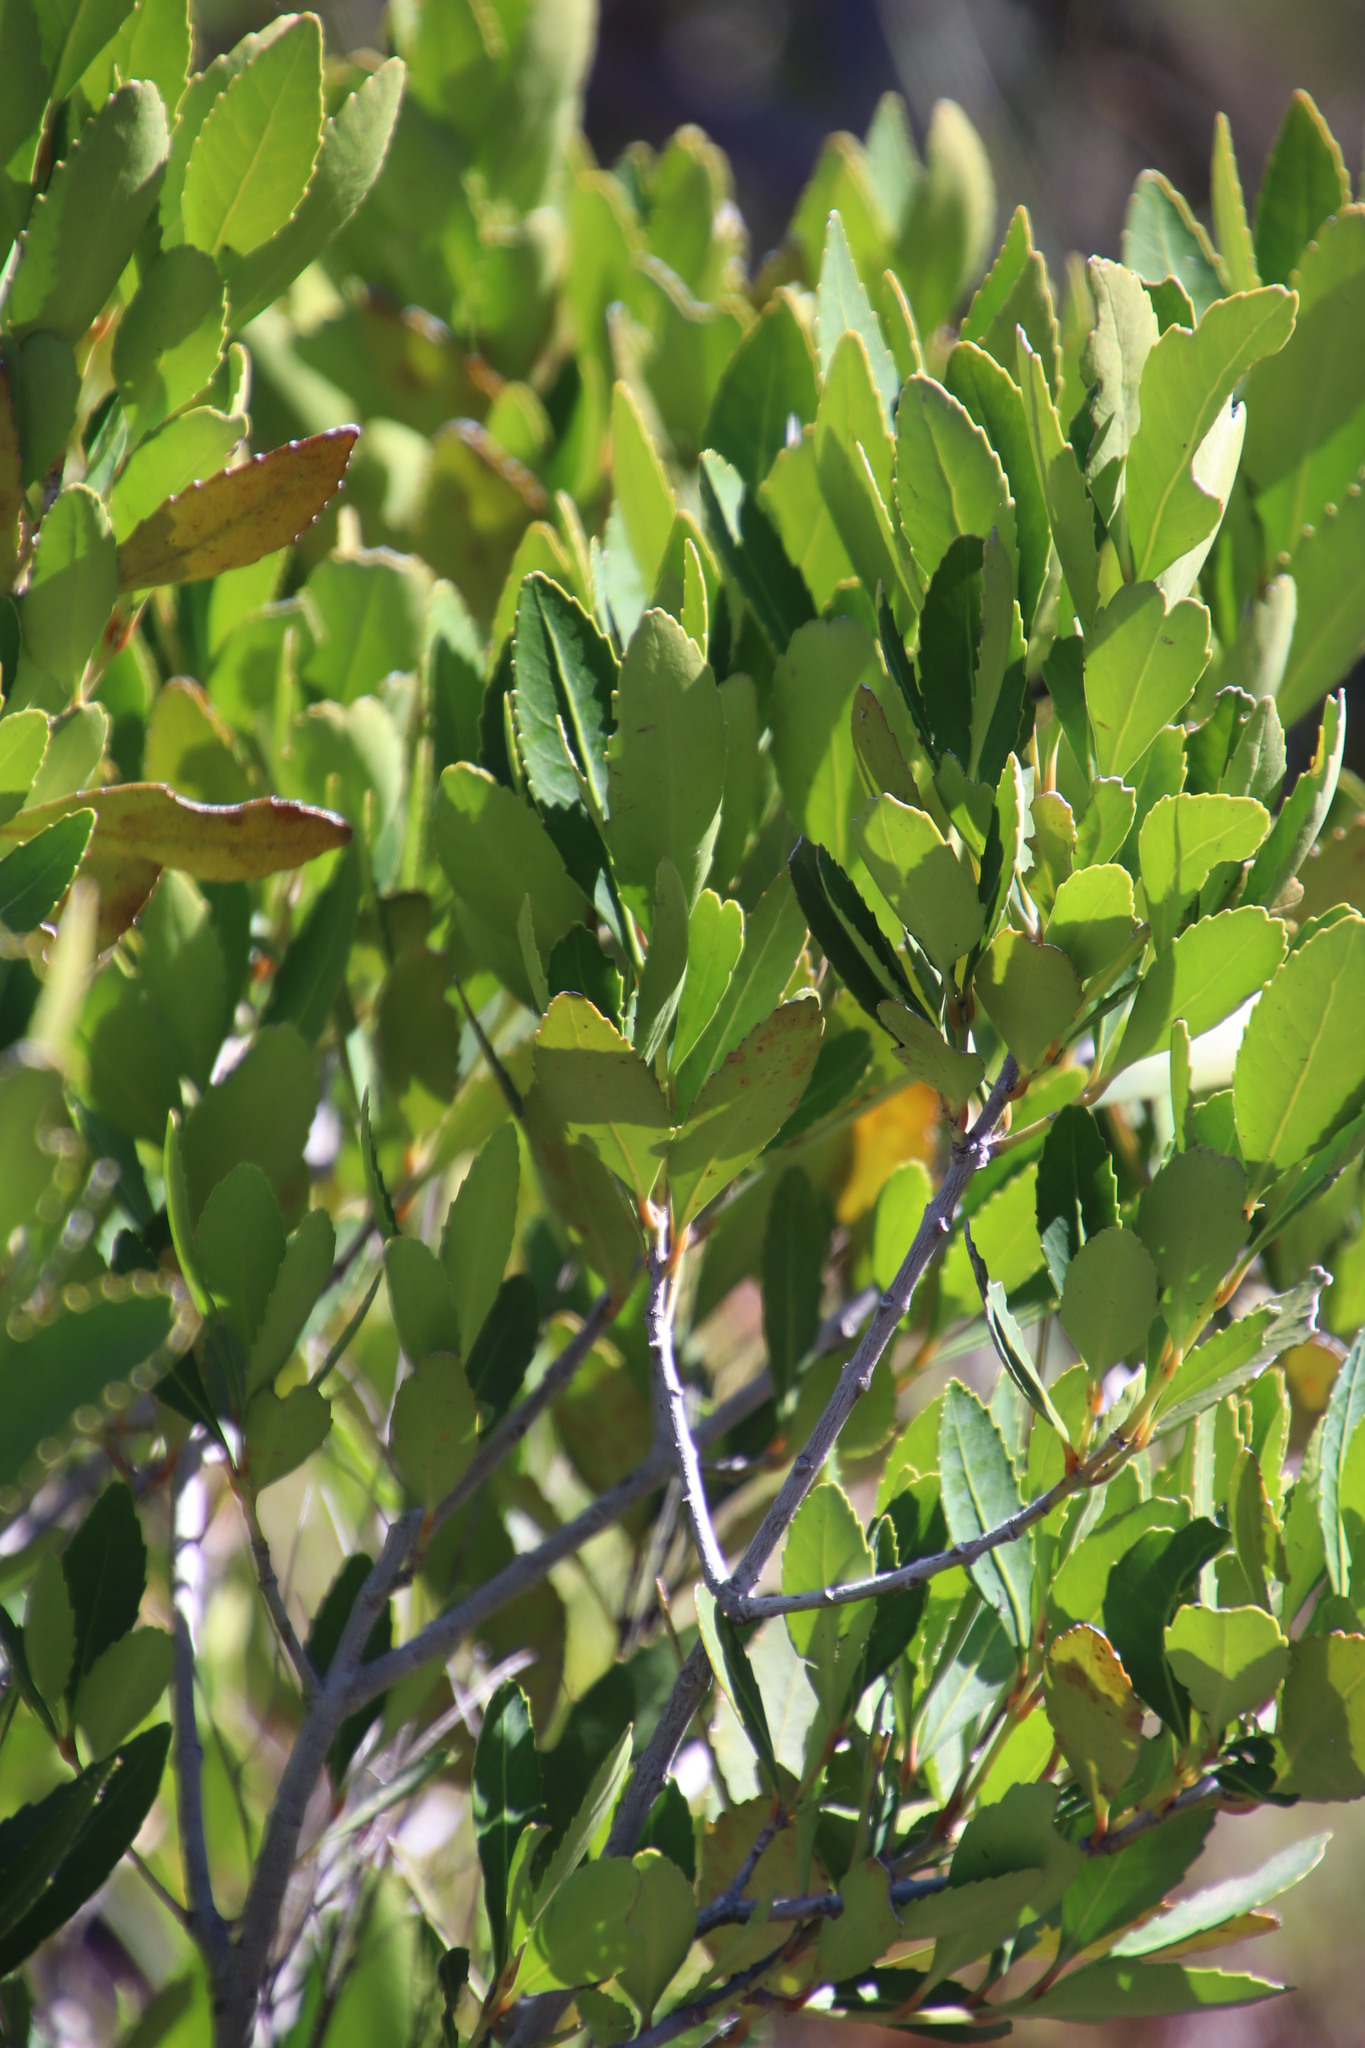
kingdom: Plantae
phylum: Tracheophyta
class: Magnoliopsida
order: Celastrales
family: Celastraceae
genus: Elaeodendron
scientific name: Elaeodendron schinoides
